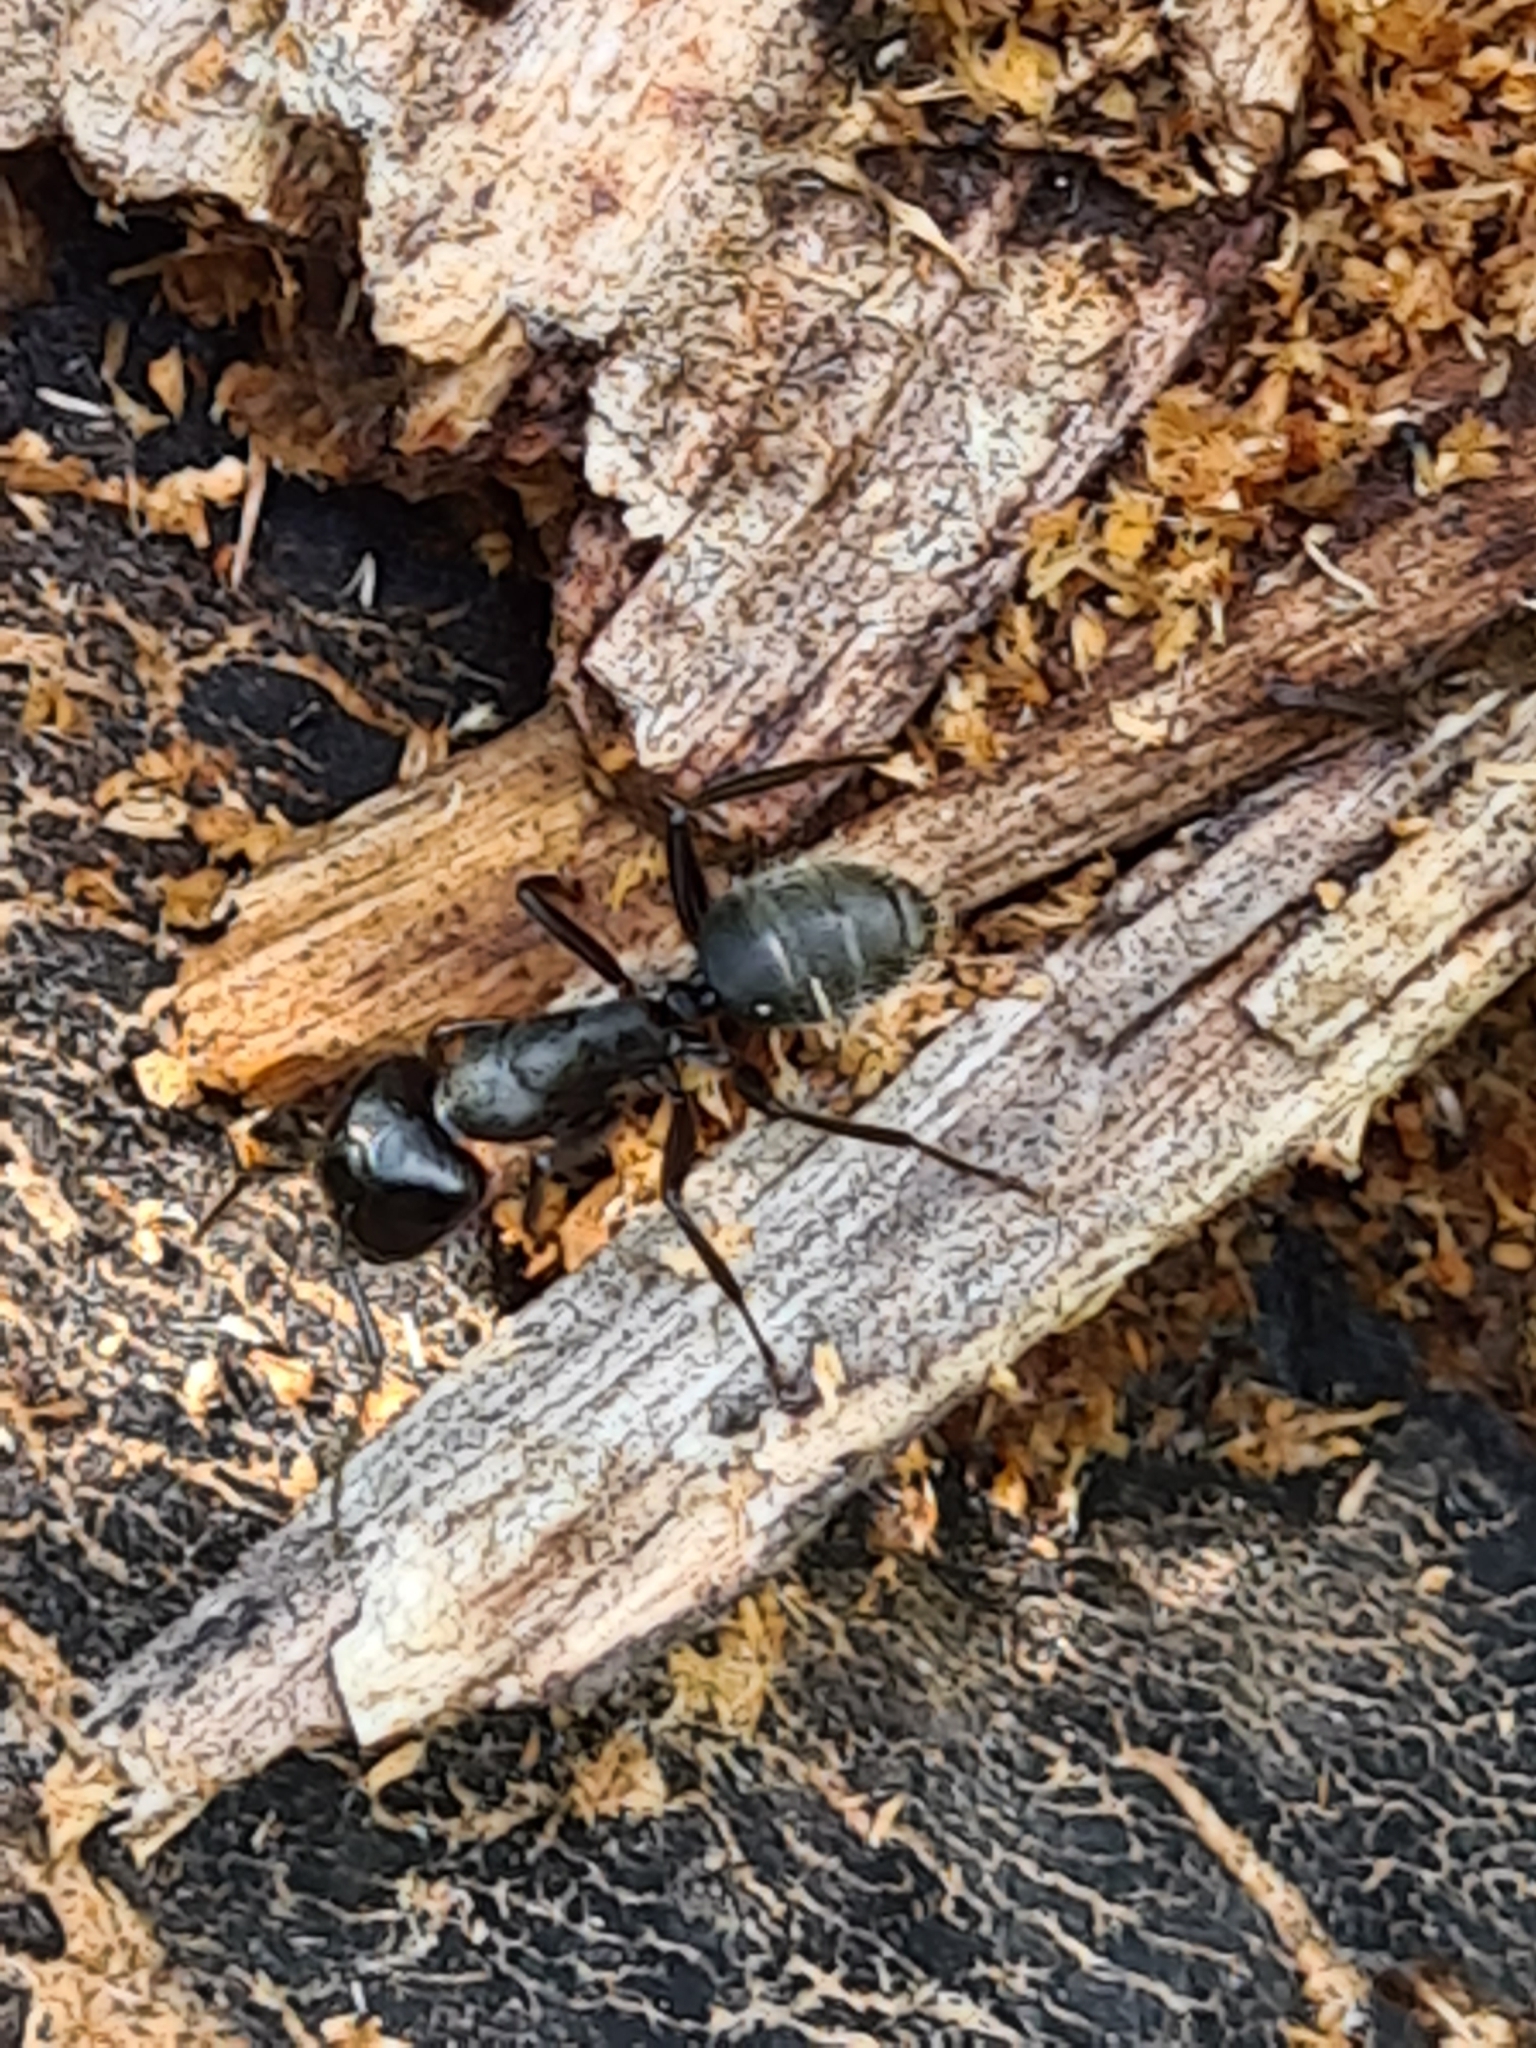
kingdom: Animalia
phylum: Arthropoda
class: Insecta
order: Hymenoptera
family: Formicidae
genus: Camponotus
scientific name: Camponotus vagus
